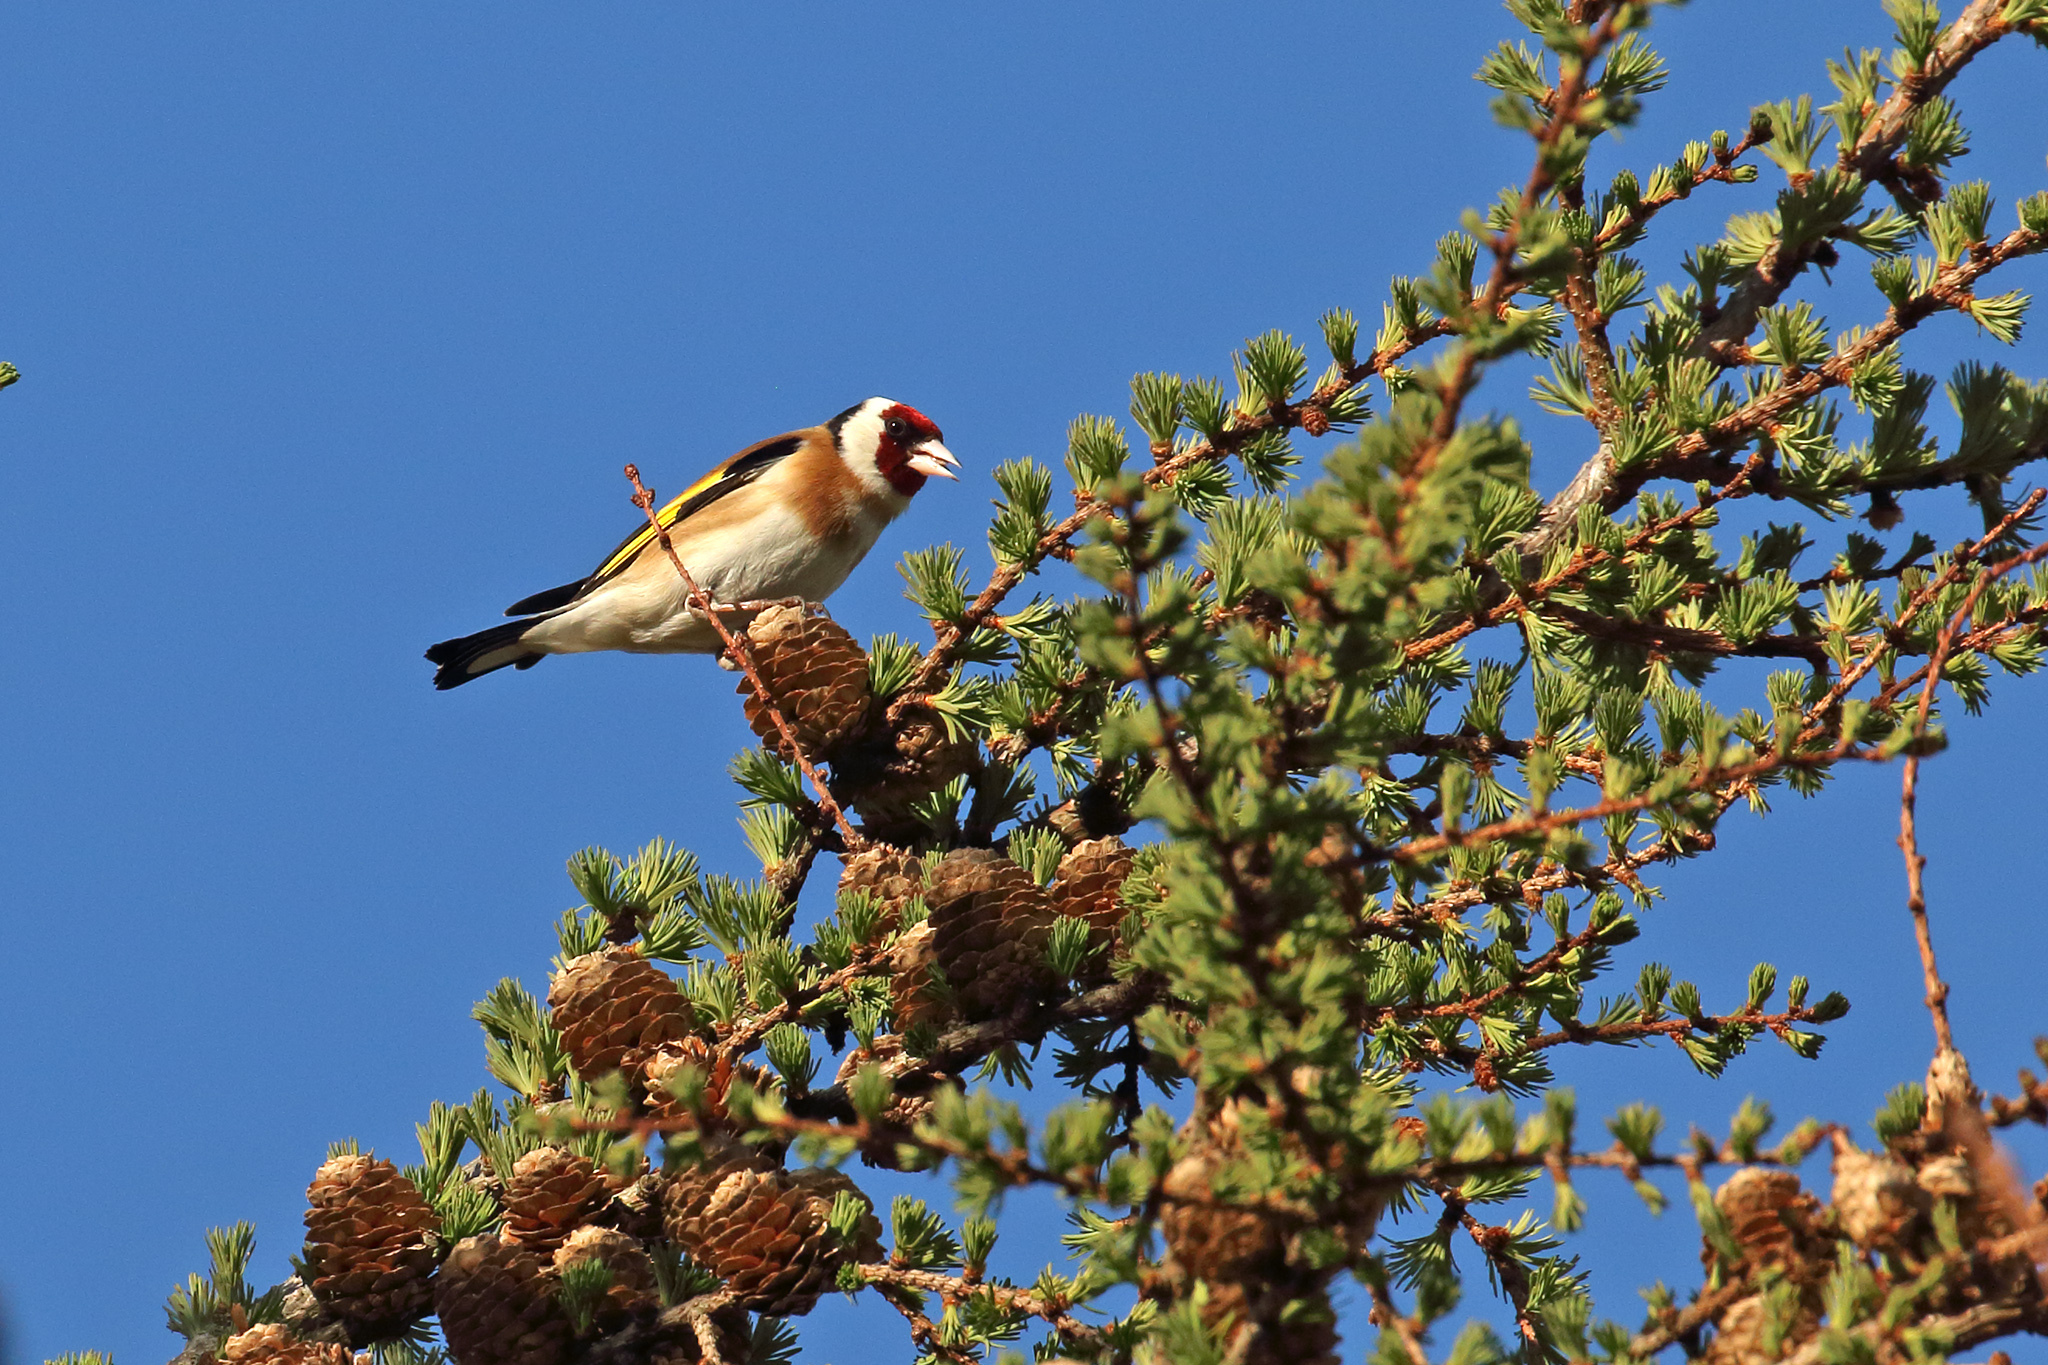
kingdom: Animalia
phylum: Chordata
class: Aves
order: Passeriformes
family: Fringillidae
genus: Carduelis
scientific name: Carduelis carduelis
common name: European goldfinch
